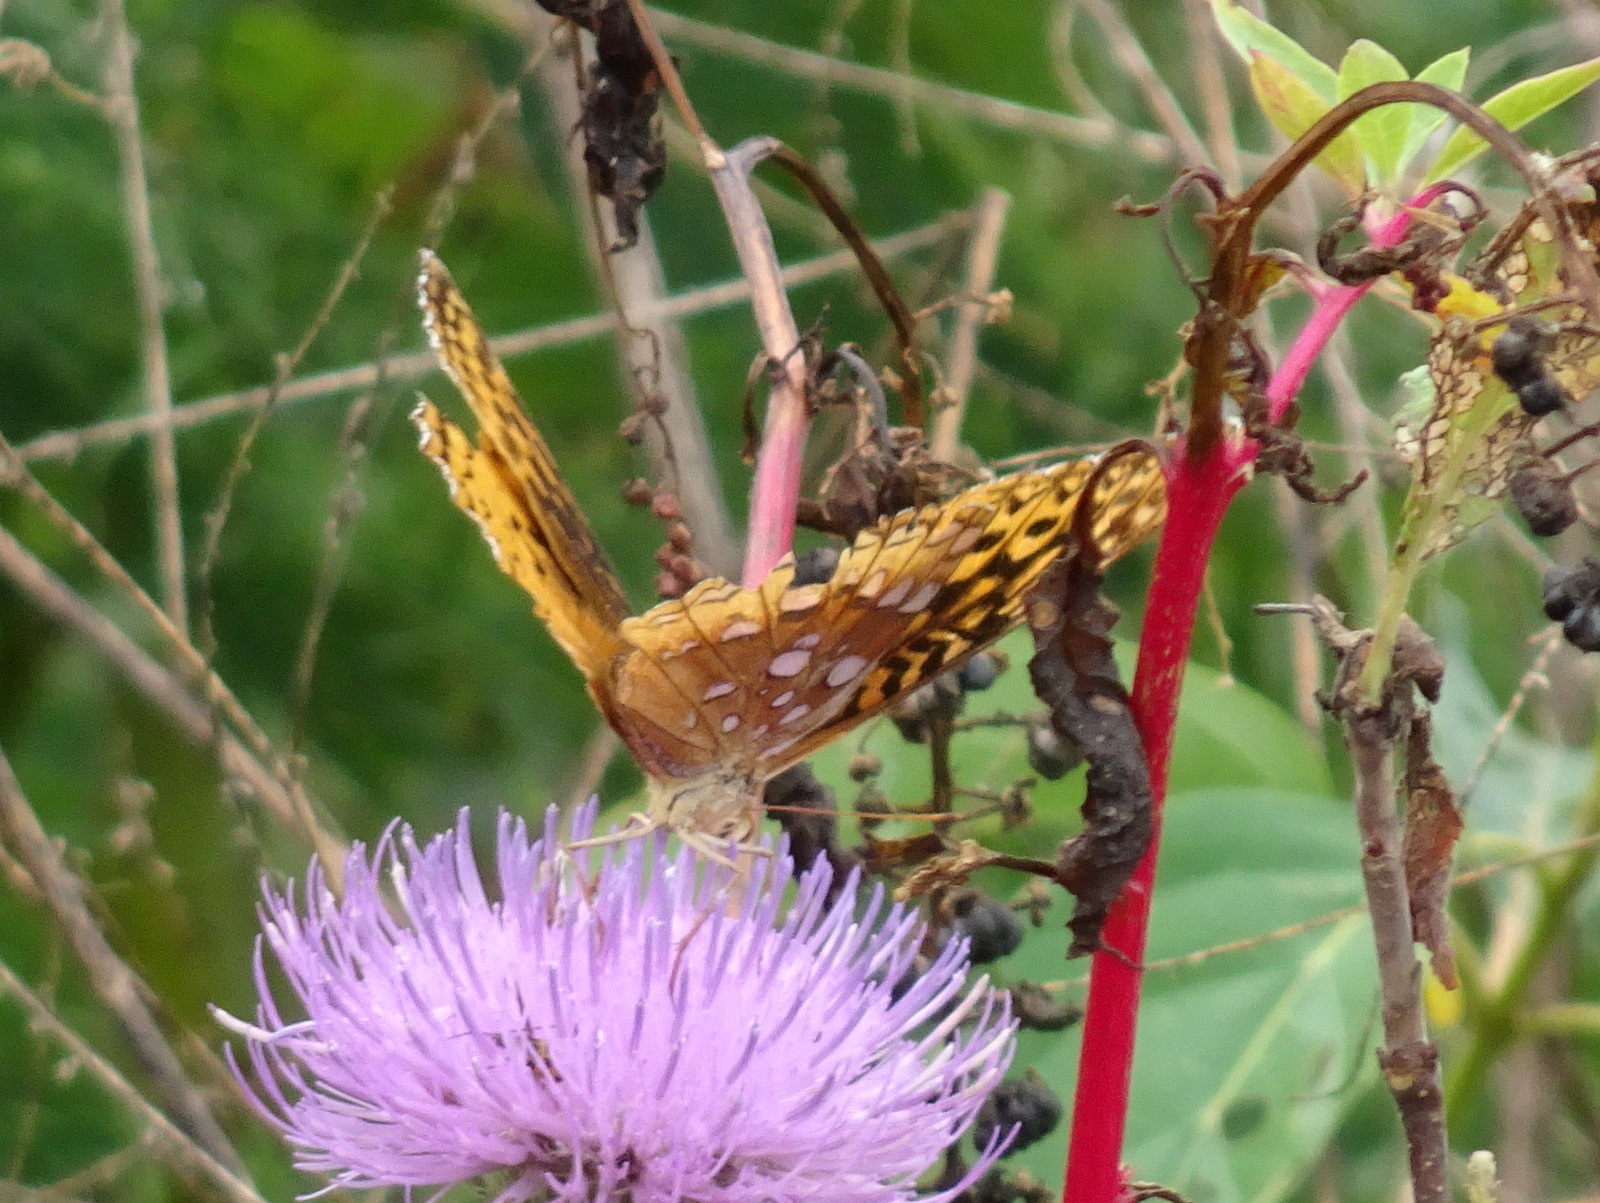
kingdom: Animalia
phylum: Arthropoda
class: Insecta
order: Lepidoptera
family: Nymphalidae
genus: Speyeria
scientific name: Speyeria cybele
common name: Great spangled fritillary
